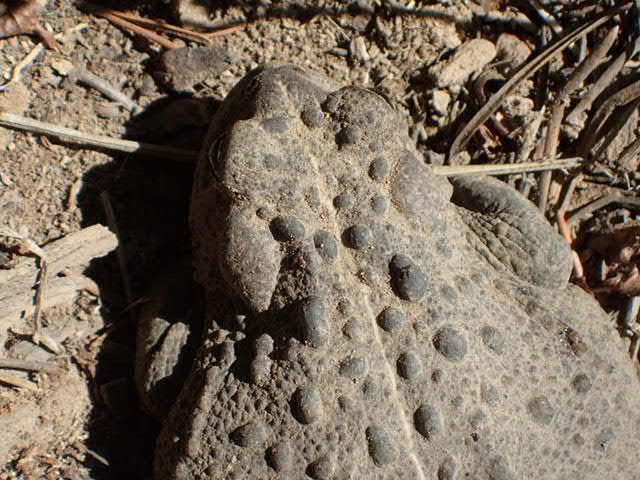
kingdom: Animalia
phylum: Chordata
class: Amphibia
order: Anura
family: Bufonidae
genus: Anaxyrus
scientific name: Anaxyrus boreas
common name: Western toad
